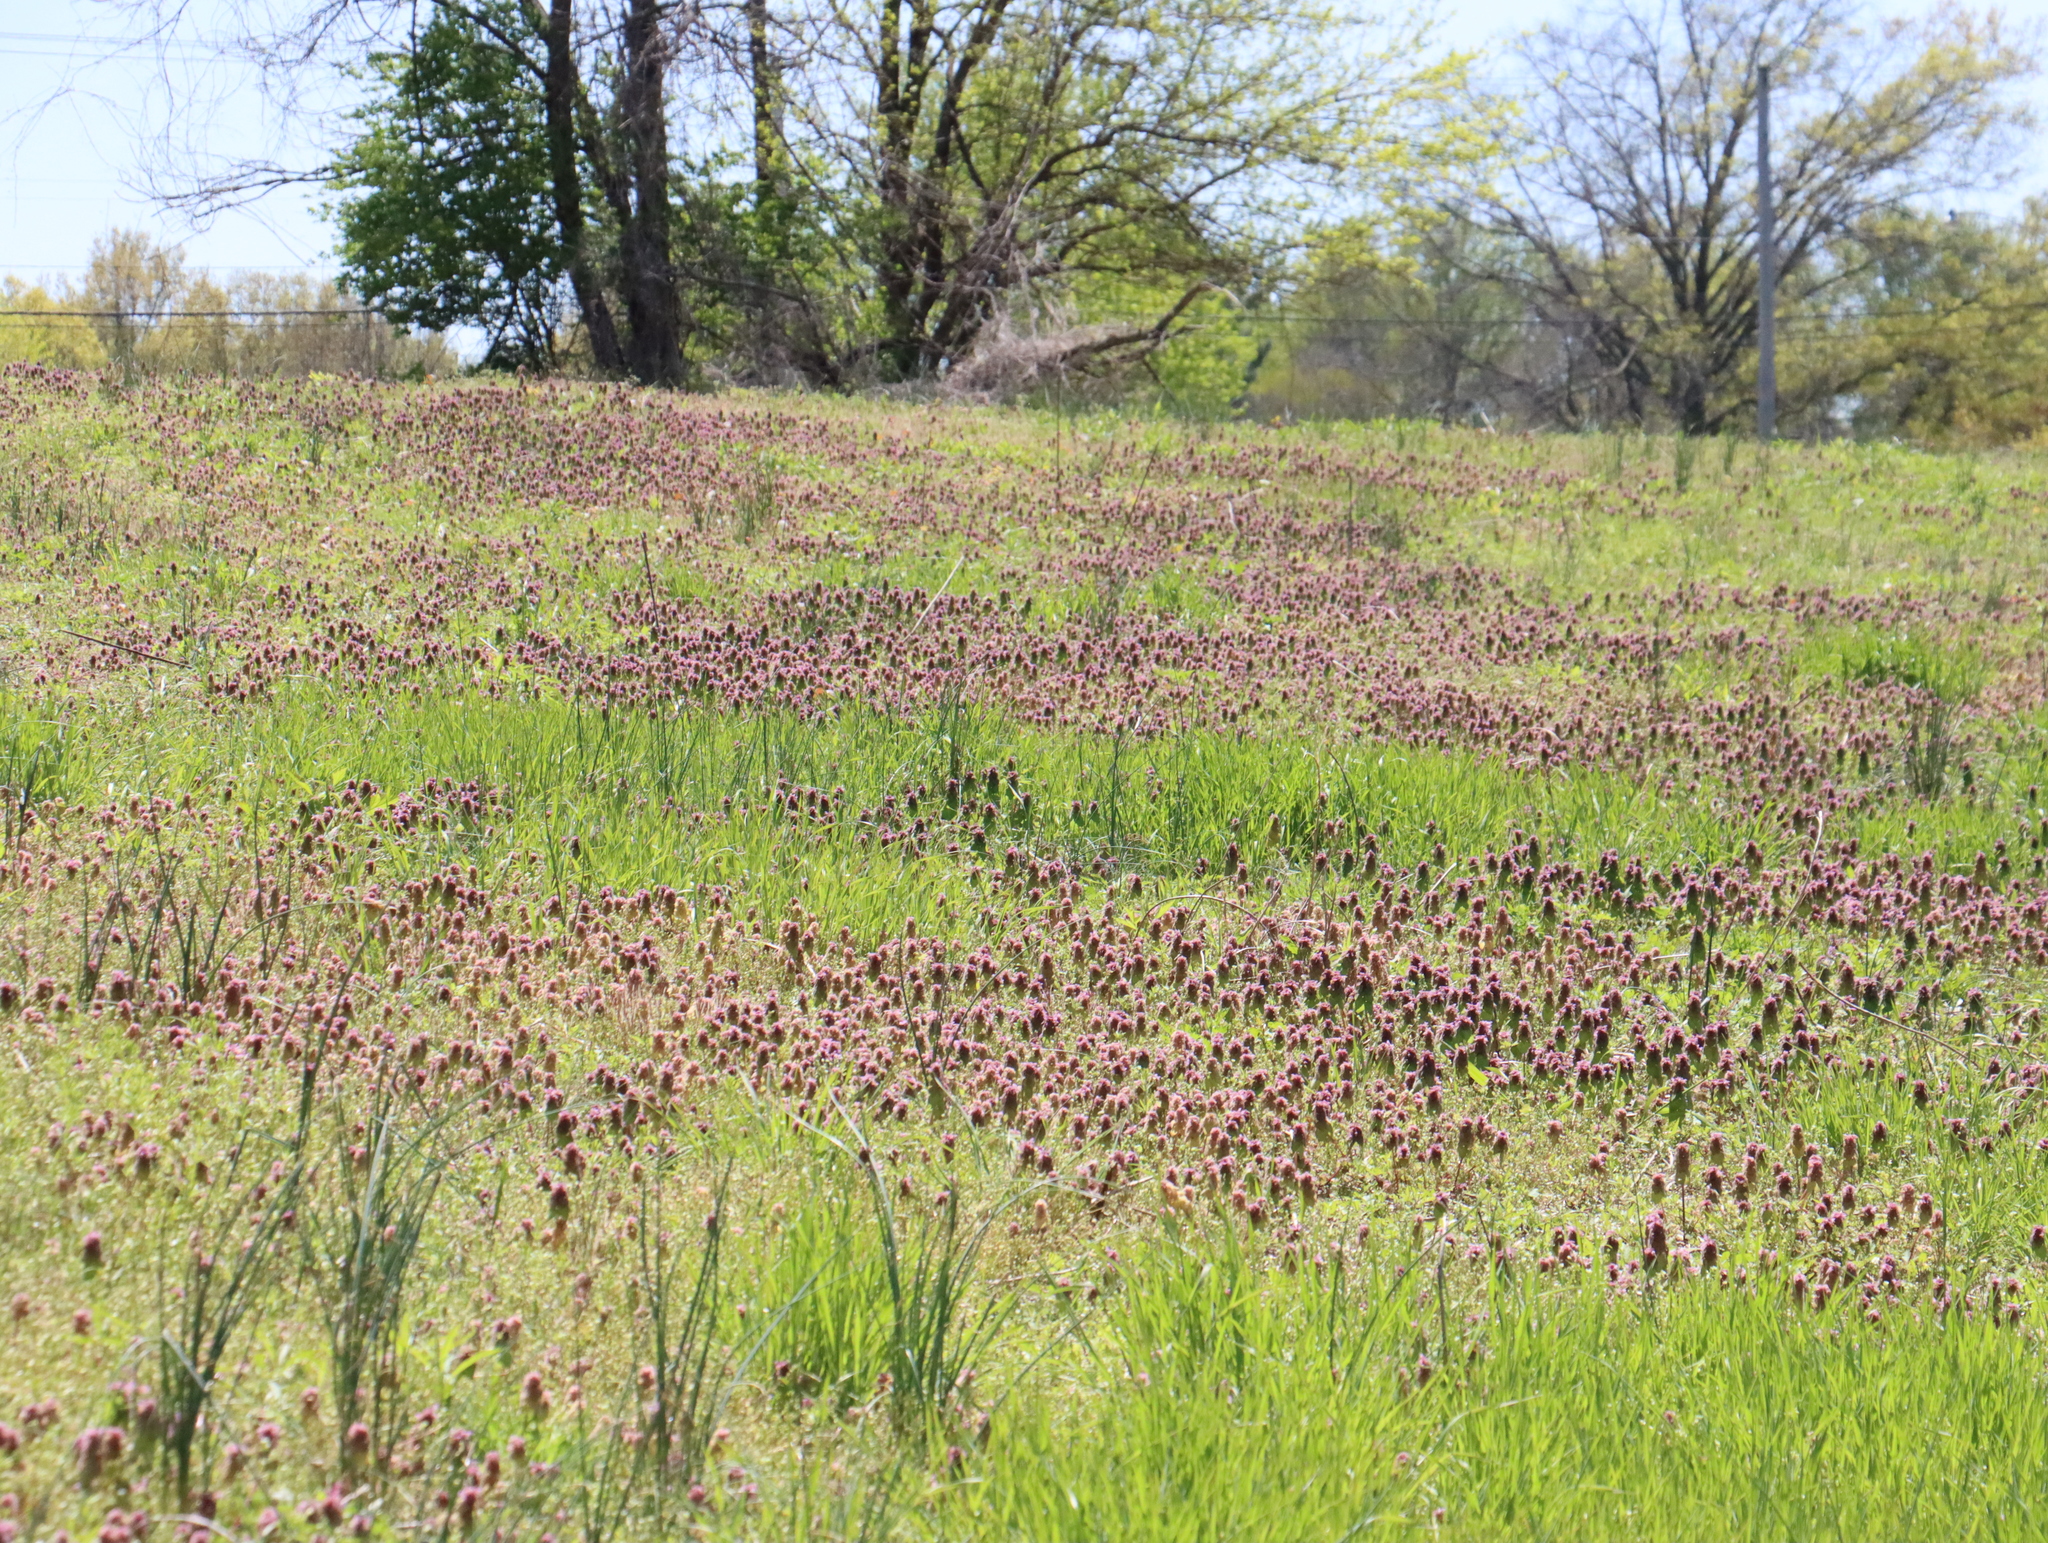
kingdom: Plantae
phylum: Tracheophyta
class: Magnoliopsida
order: Lamiales
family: Lamiaceae
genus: Lamium
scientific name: Lamium purpureum
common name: Red dead-nettle
